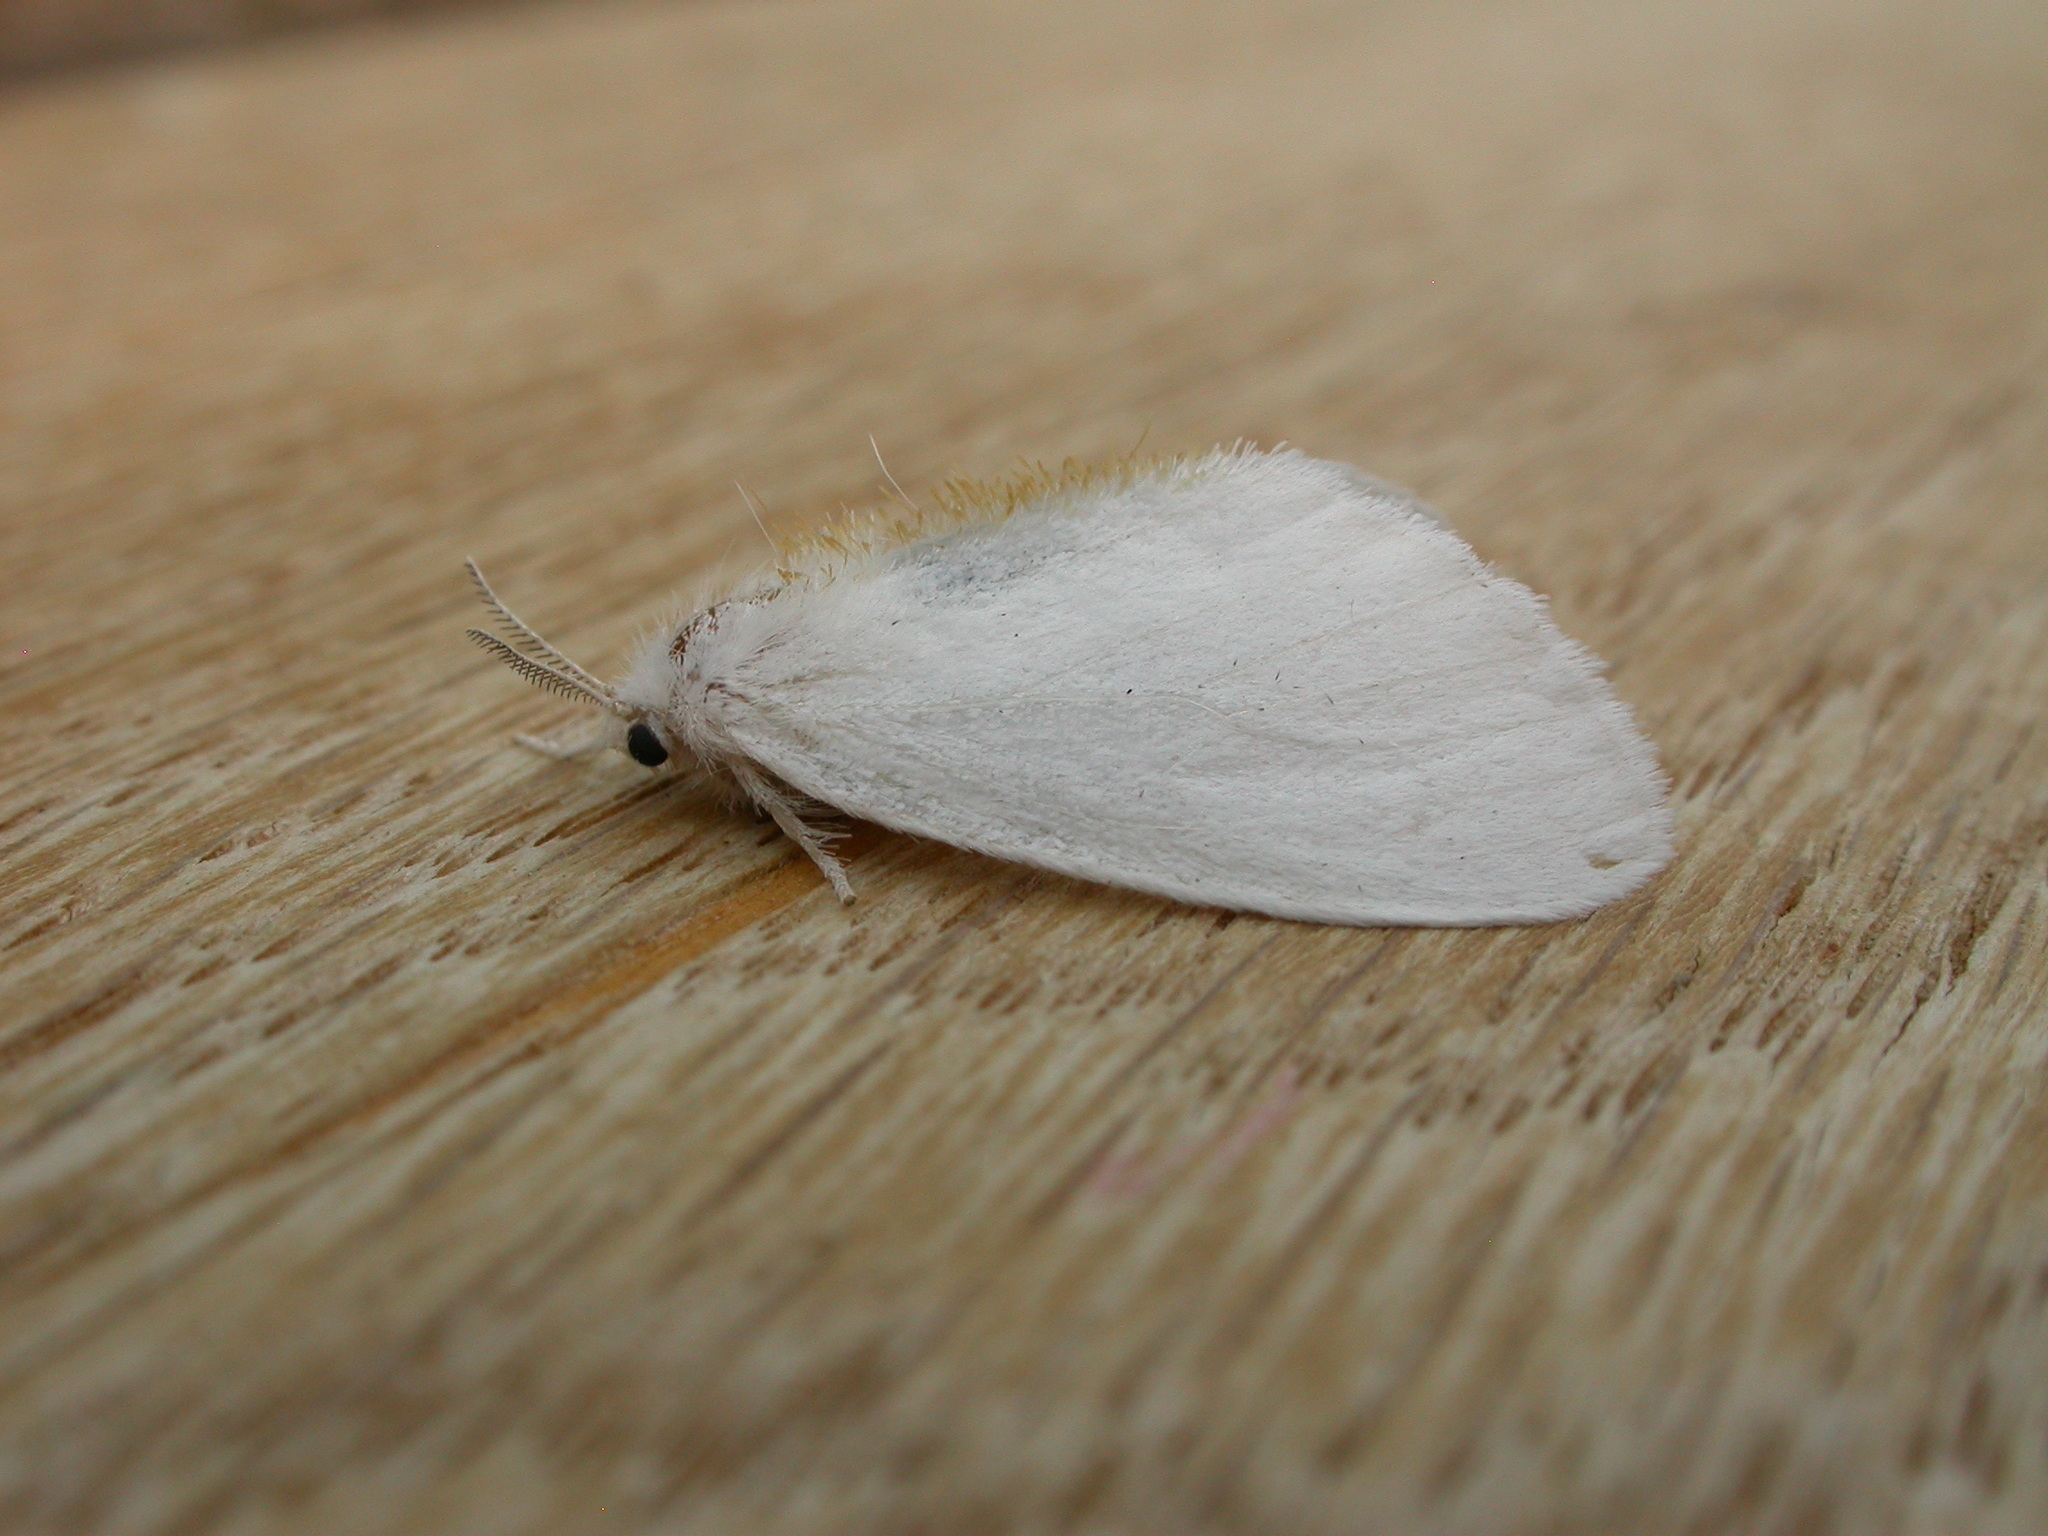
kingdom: Animalia
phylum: Arthropoda
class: Insecta
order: Lepidoptera
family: Erebidae
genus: Euproctis
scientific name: Euproctis melanosoma
